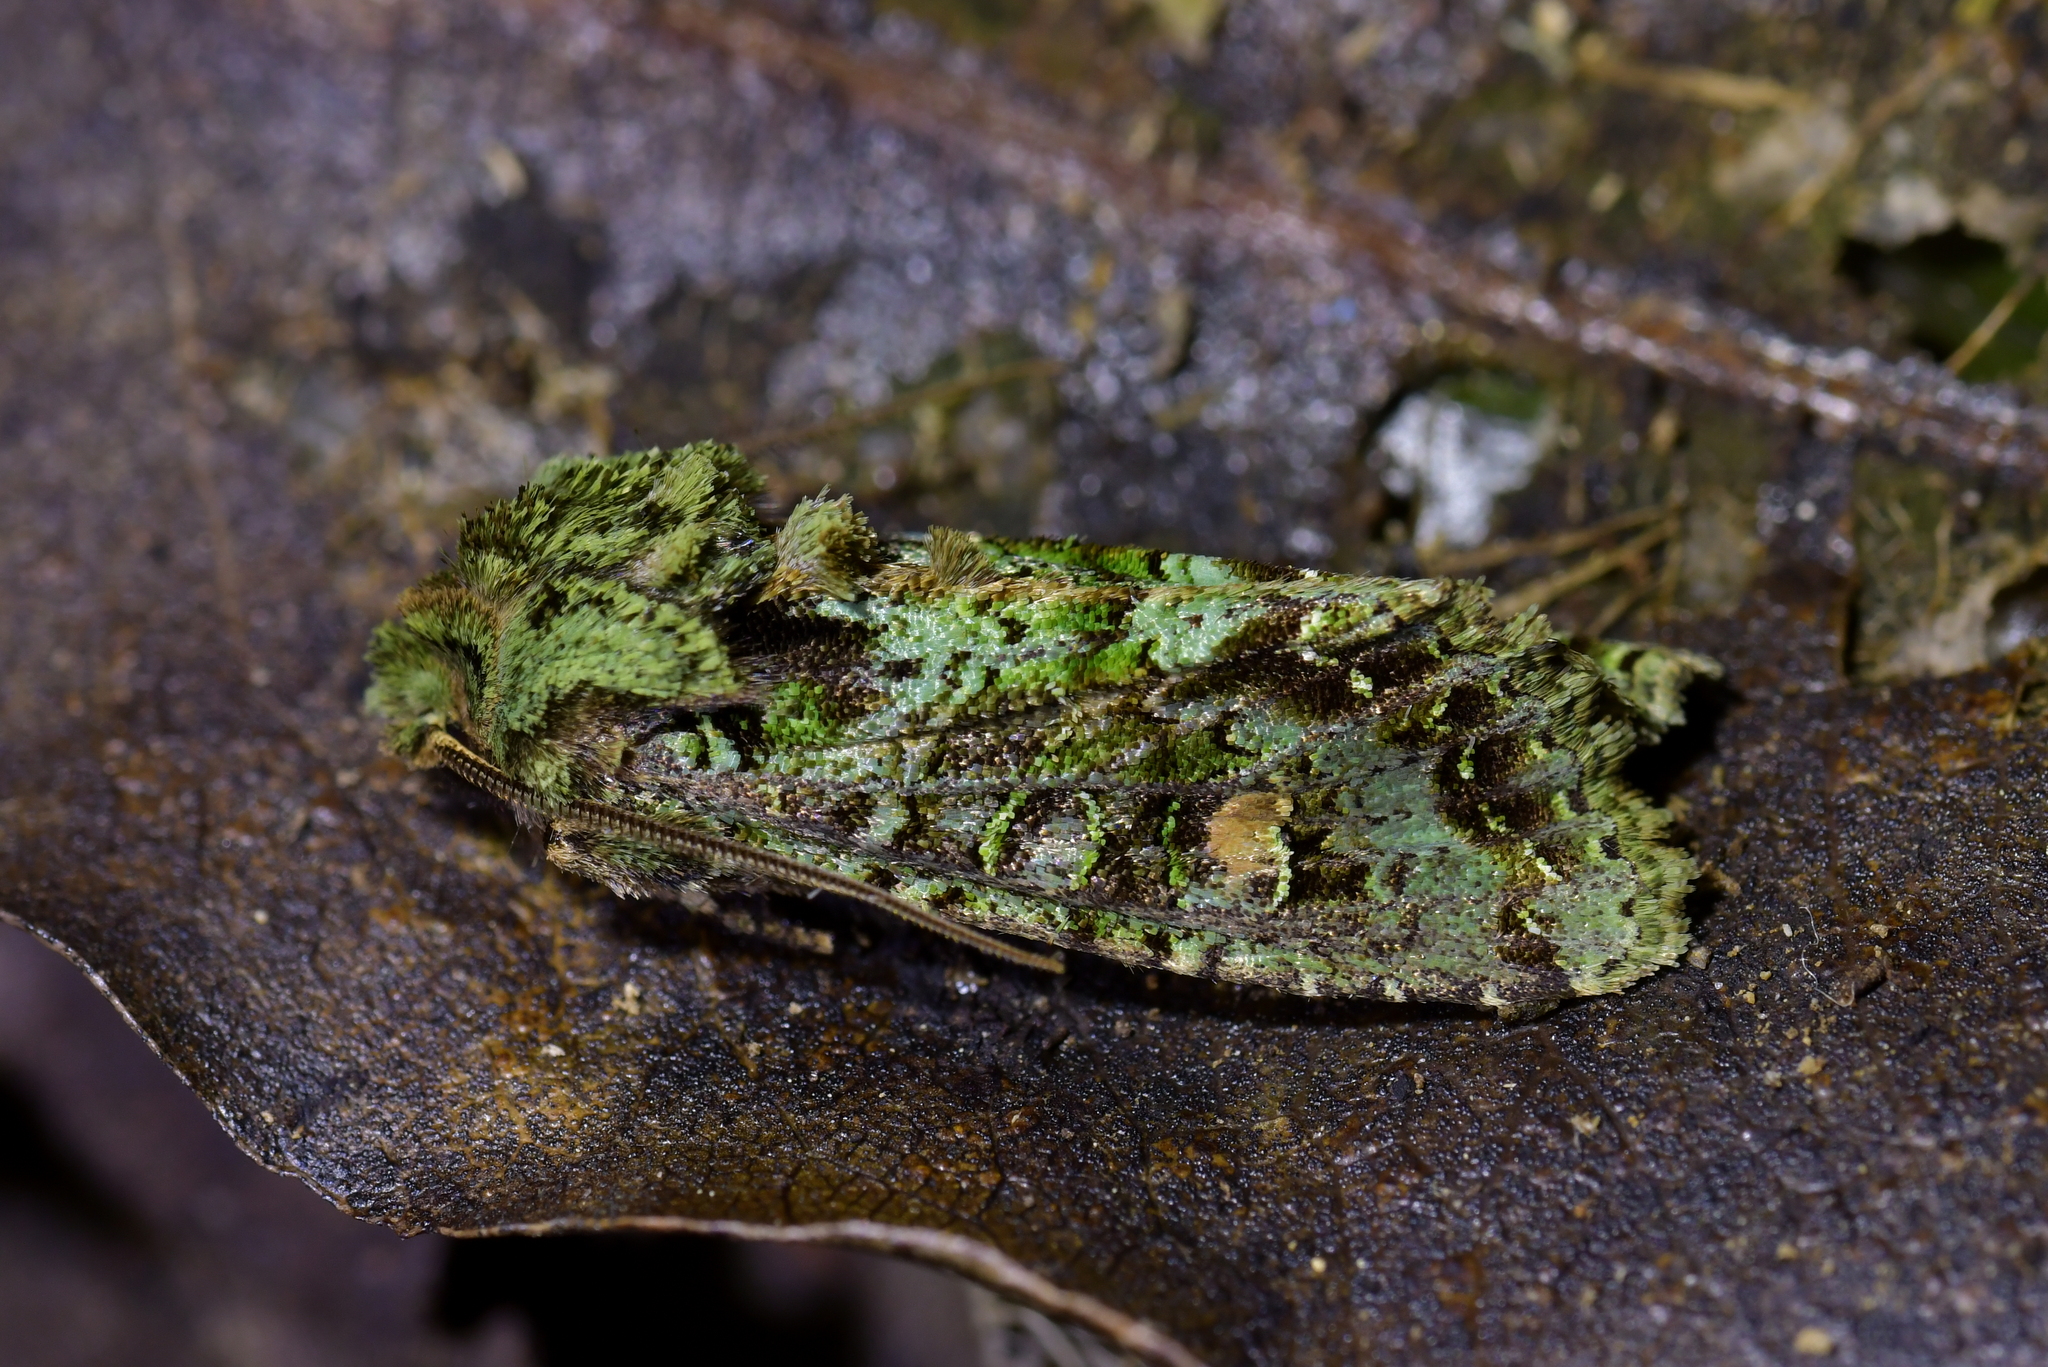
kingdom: Animalia
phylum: Arthropoda
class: Insecta
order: Lepidoptera
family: Noctuidae
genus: Ichneutica
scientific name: Ichneutica
